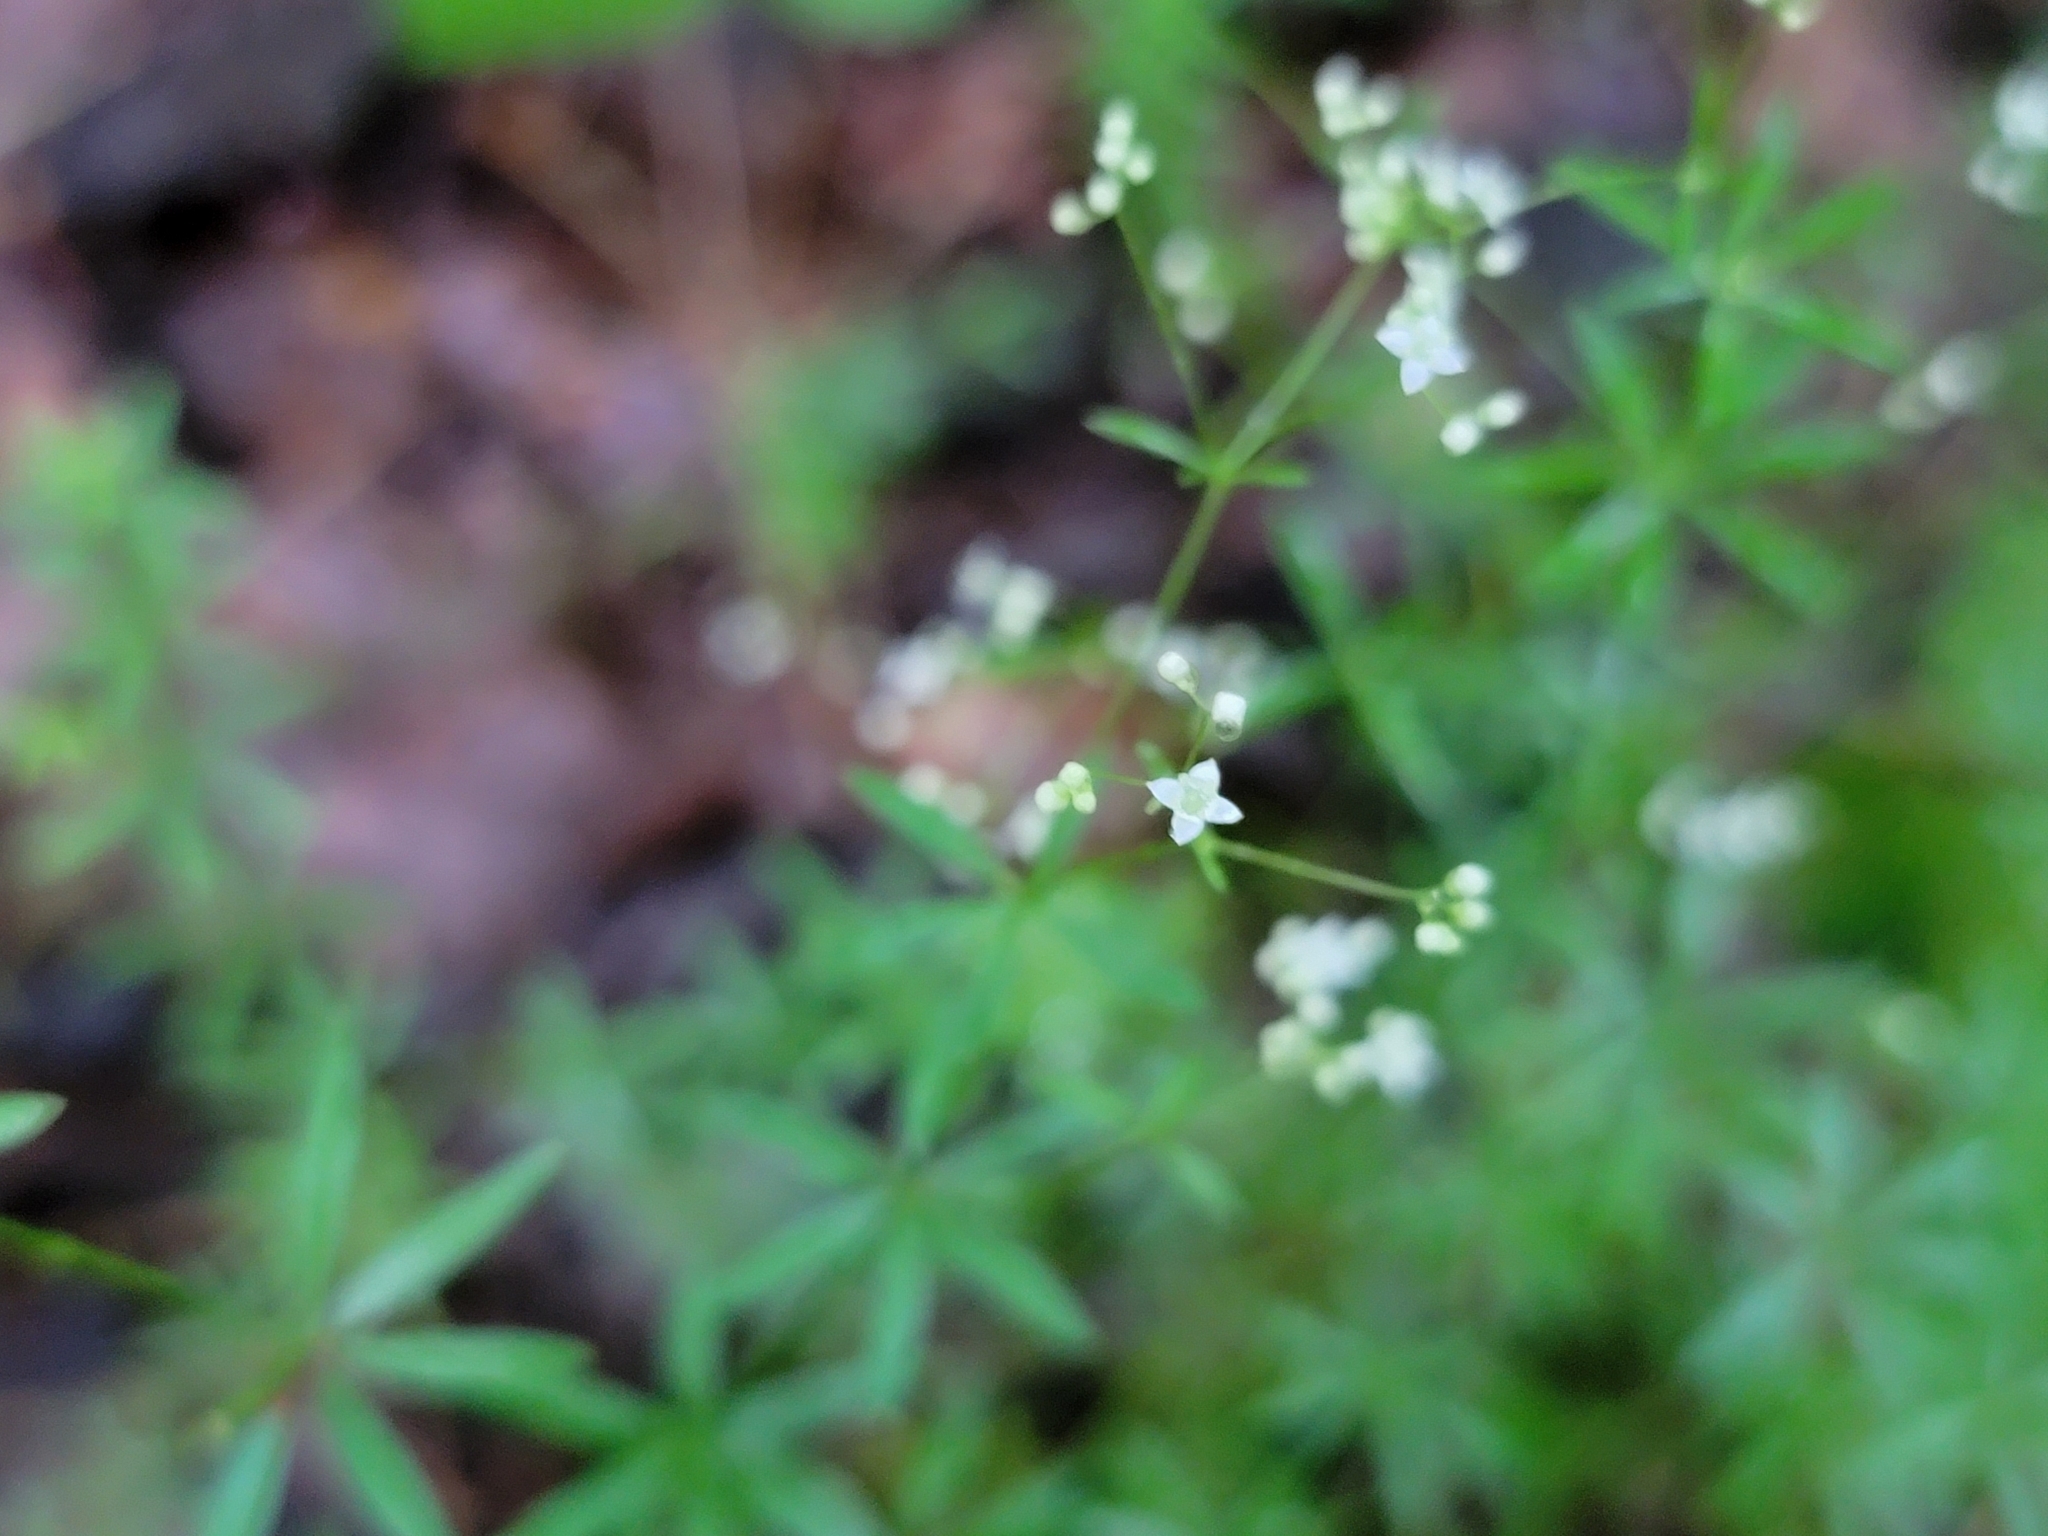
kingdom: Plantae
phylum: Tracheophyta
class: Magnoliopsida
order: Gentianales
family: Rubiaceae
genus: Galium
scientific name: Galium concinnum
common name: Shining bedstraw
